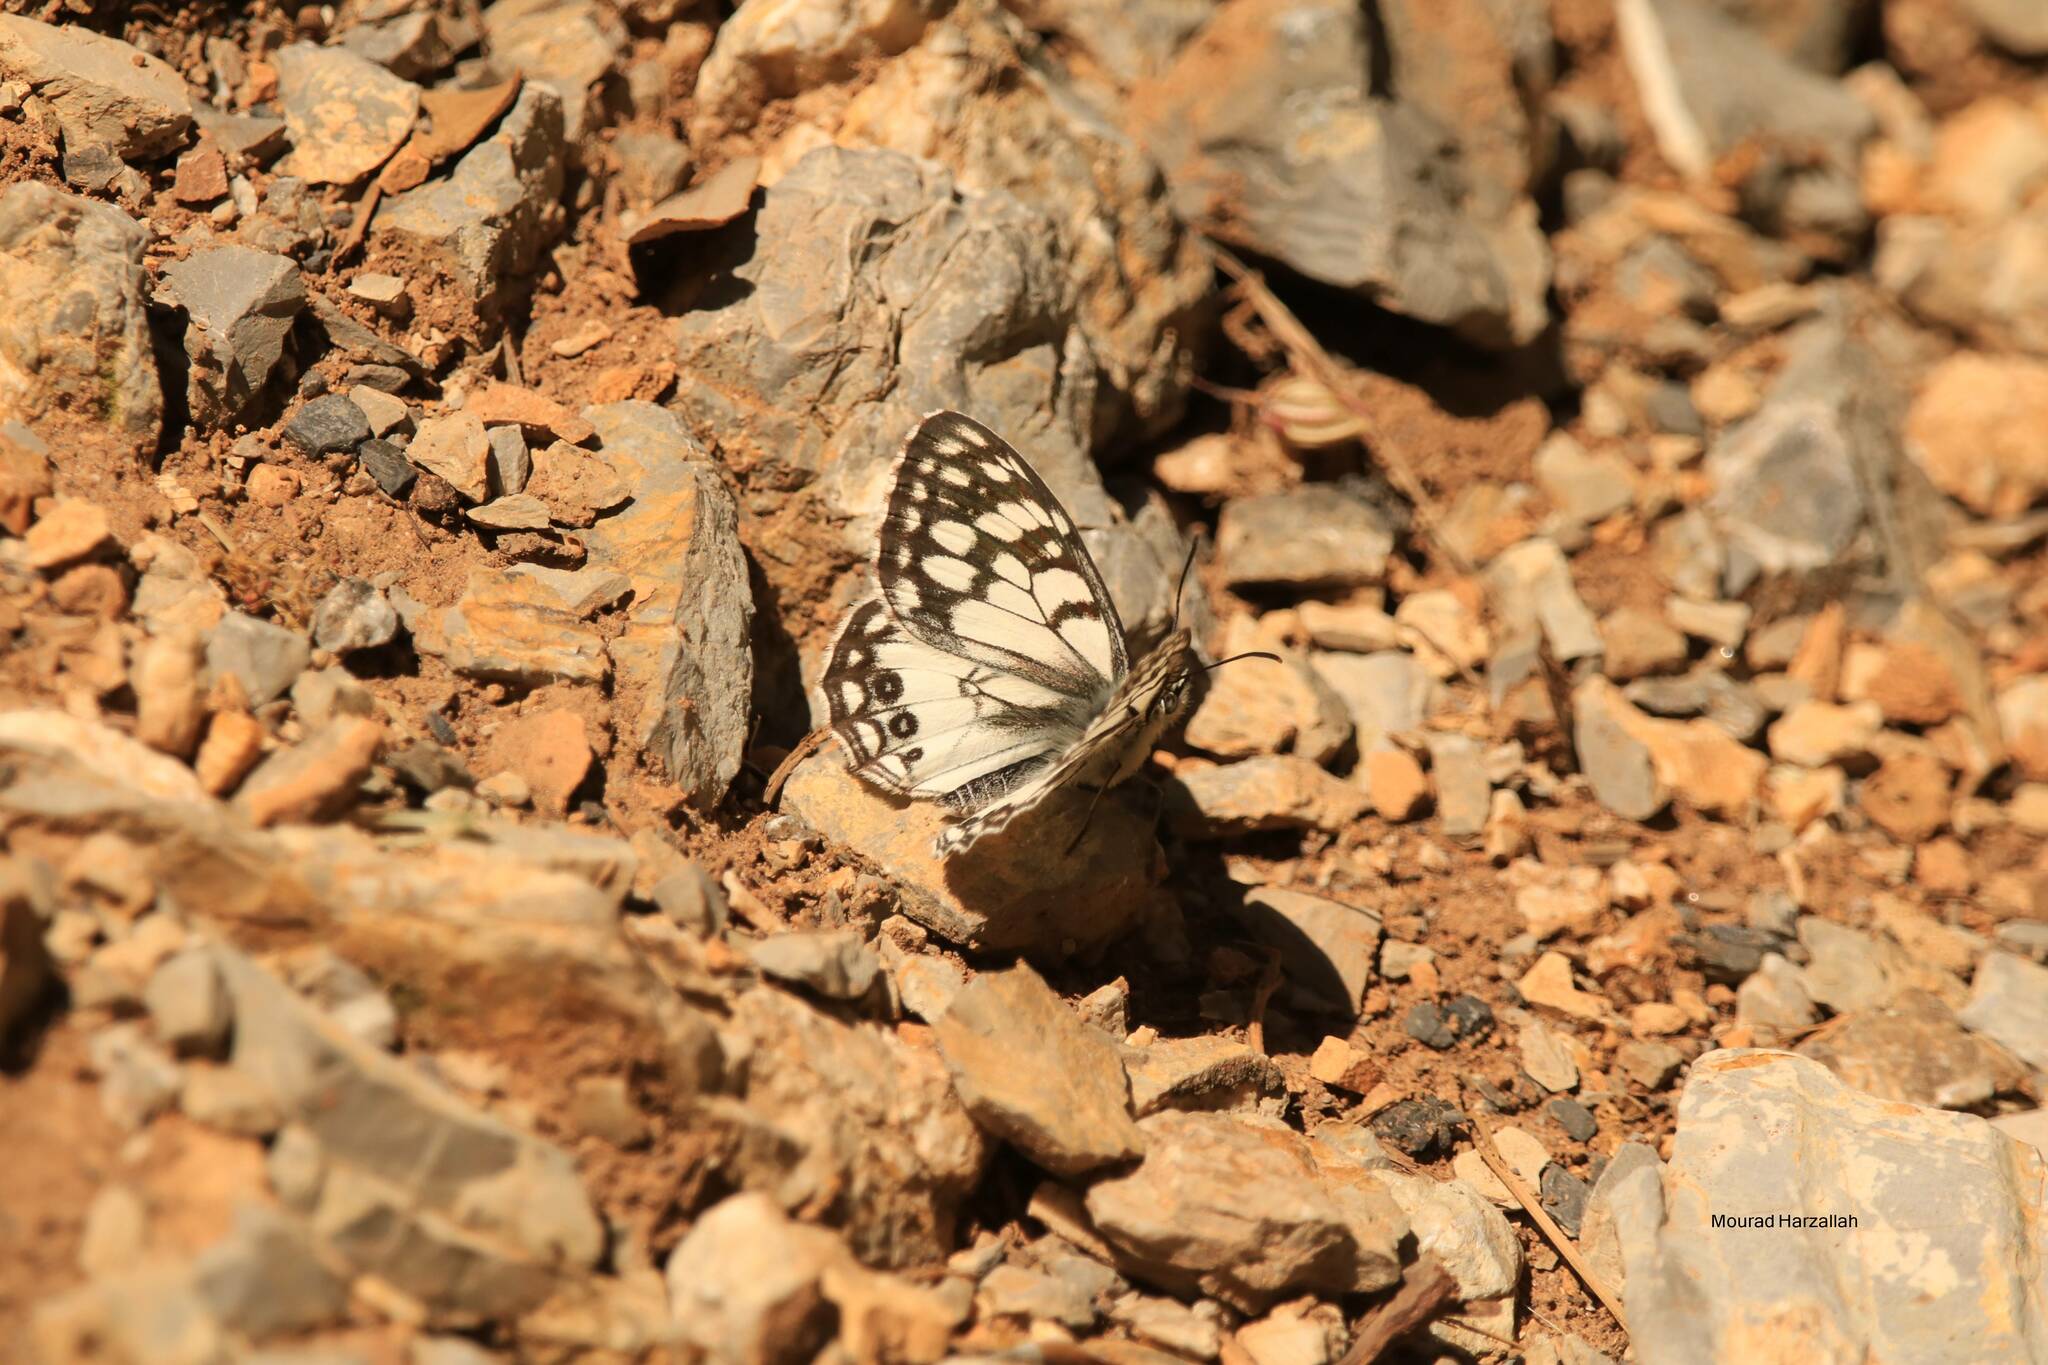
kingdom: Animalia
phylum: Arthropoda
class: Insecta
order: Lepidoptera
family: Nymphalidae
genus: Melanargia
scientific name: Melanargia ines
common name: Spanish marbled white
